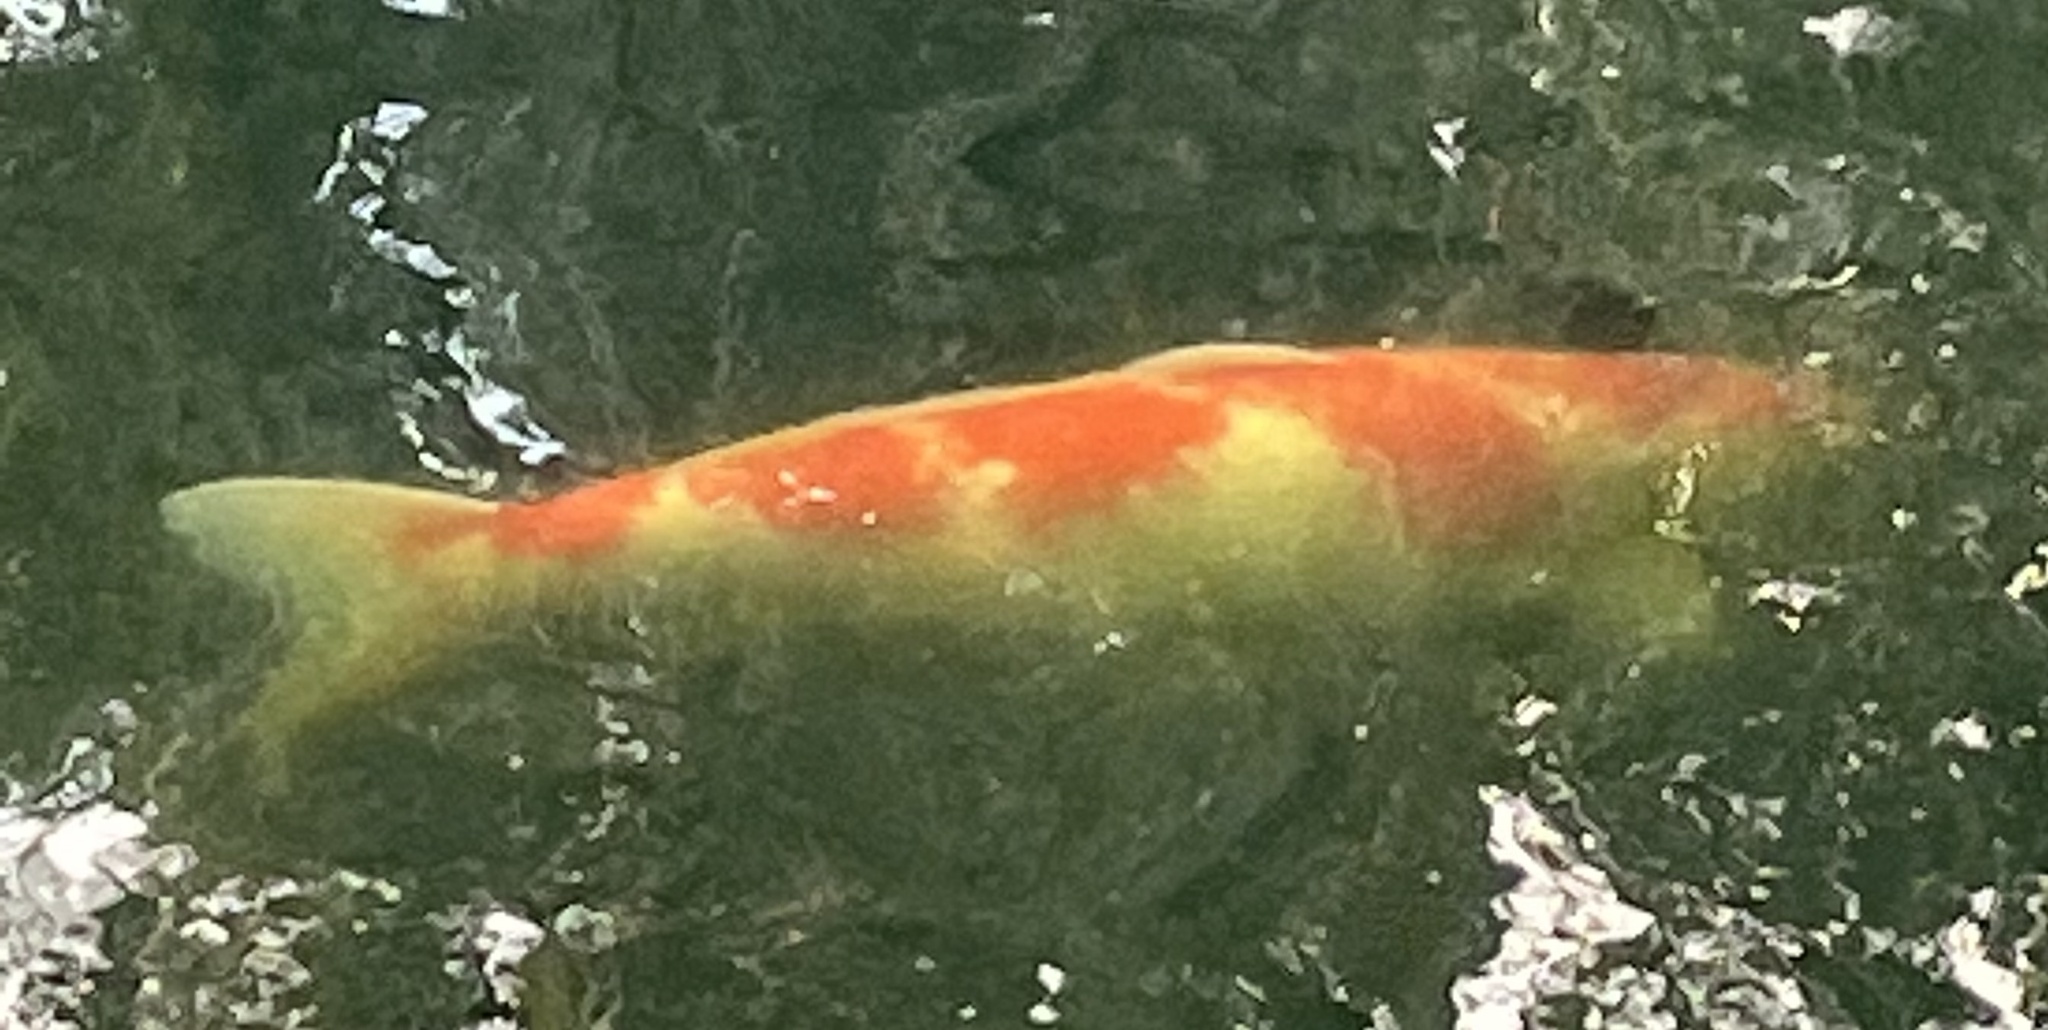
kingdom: Animalia
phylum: Chordata
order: Cypriniformes
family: Cyprinidae
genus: Cyprinus
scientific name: Cyprinus rubrofuscus
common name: Koi
